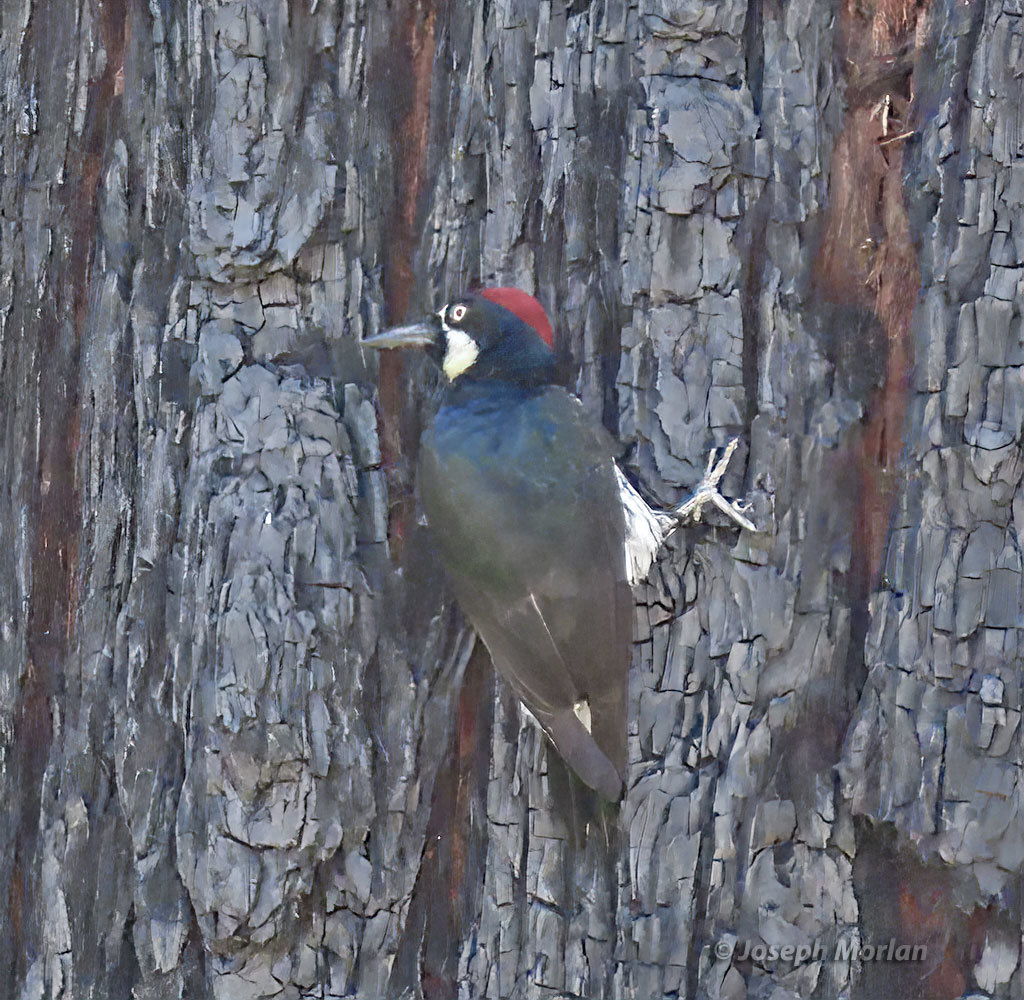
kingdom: Animalia
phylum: Chordata
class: Aves
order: Piciformes
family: Picidae
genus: Melanerpes
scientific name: Melanerpes formicivorus
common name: Acorn woodpecker
